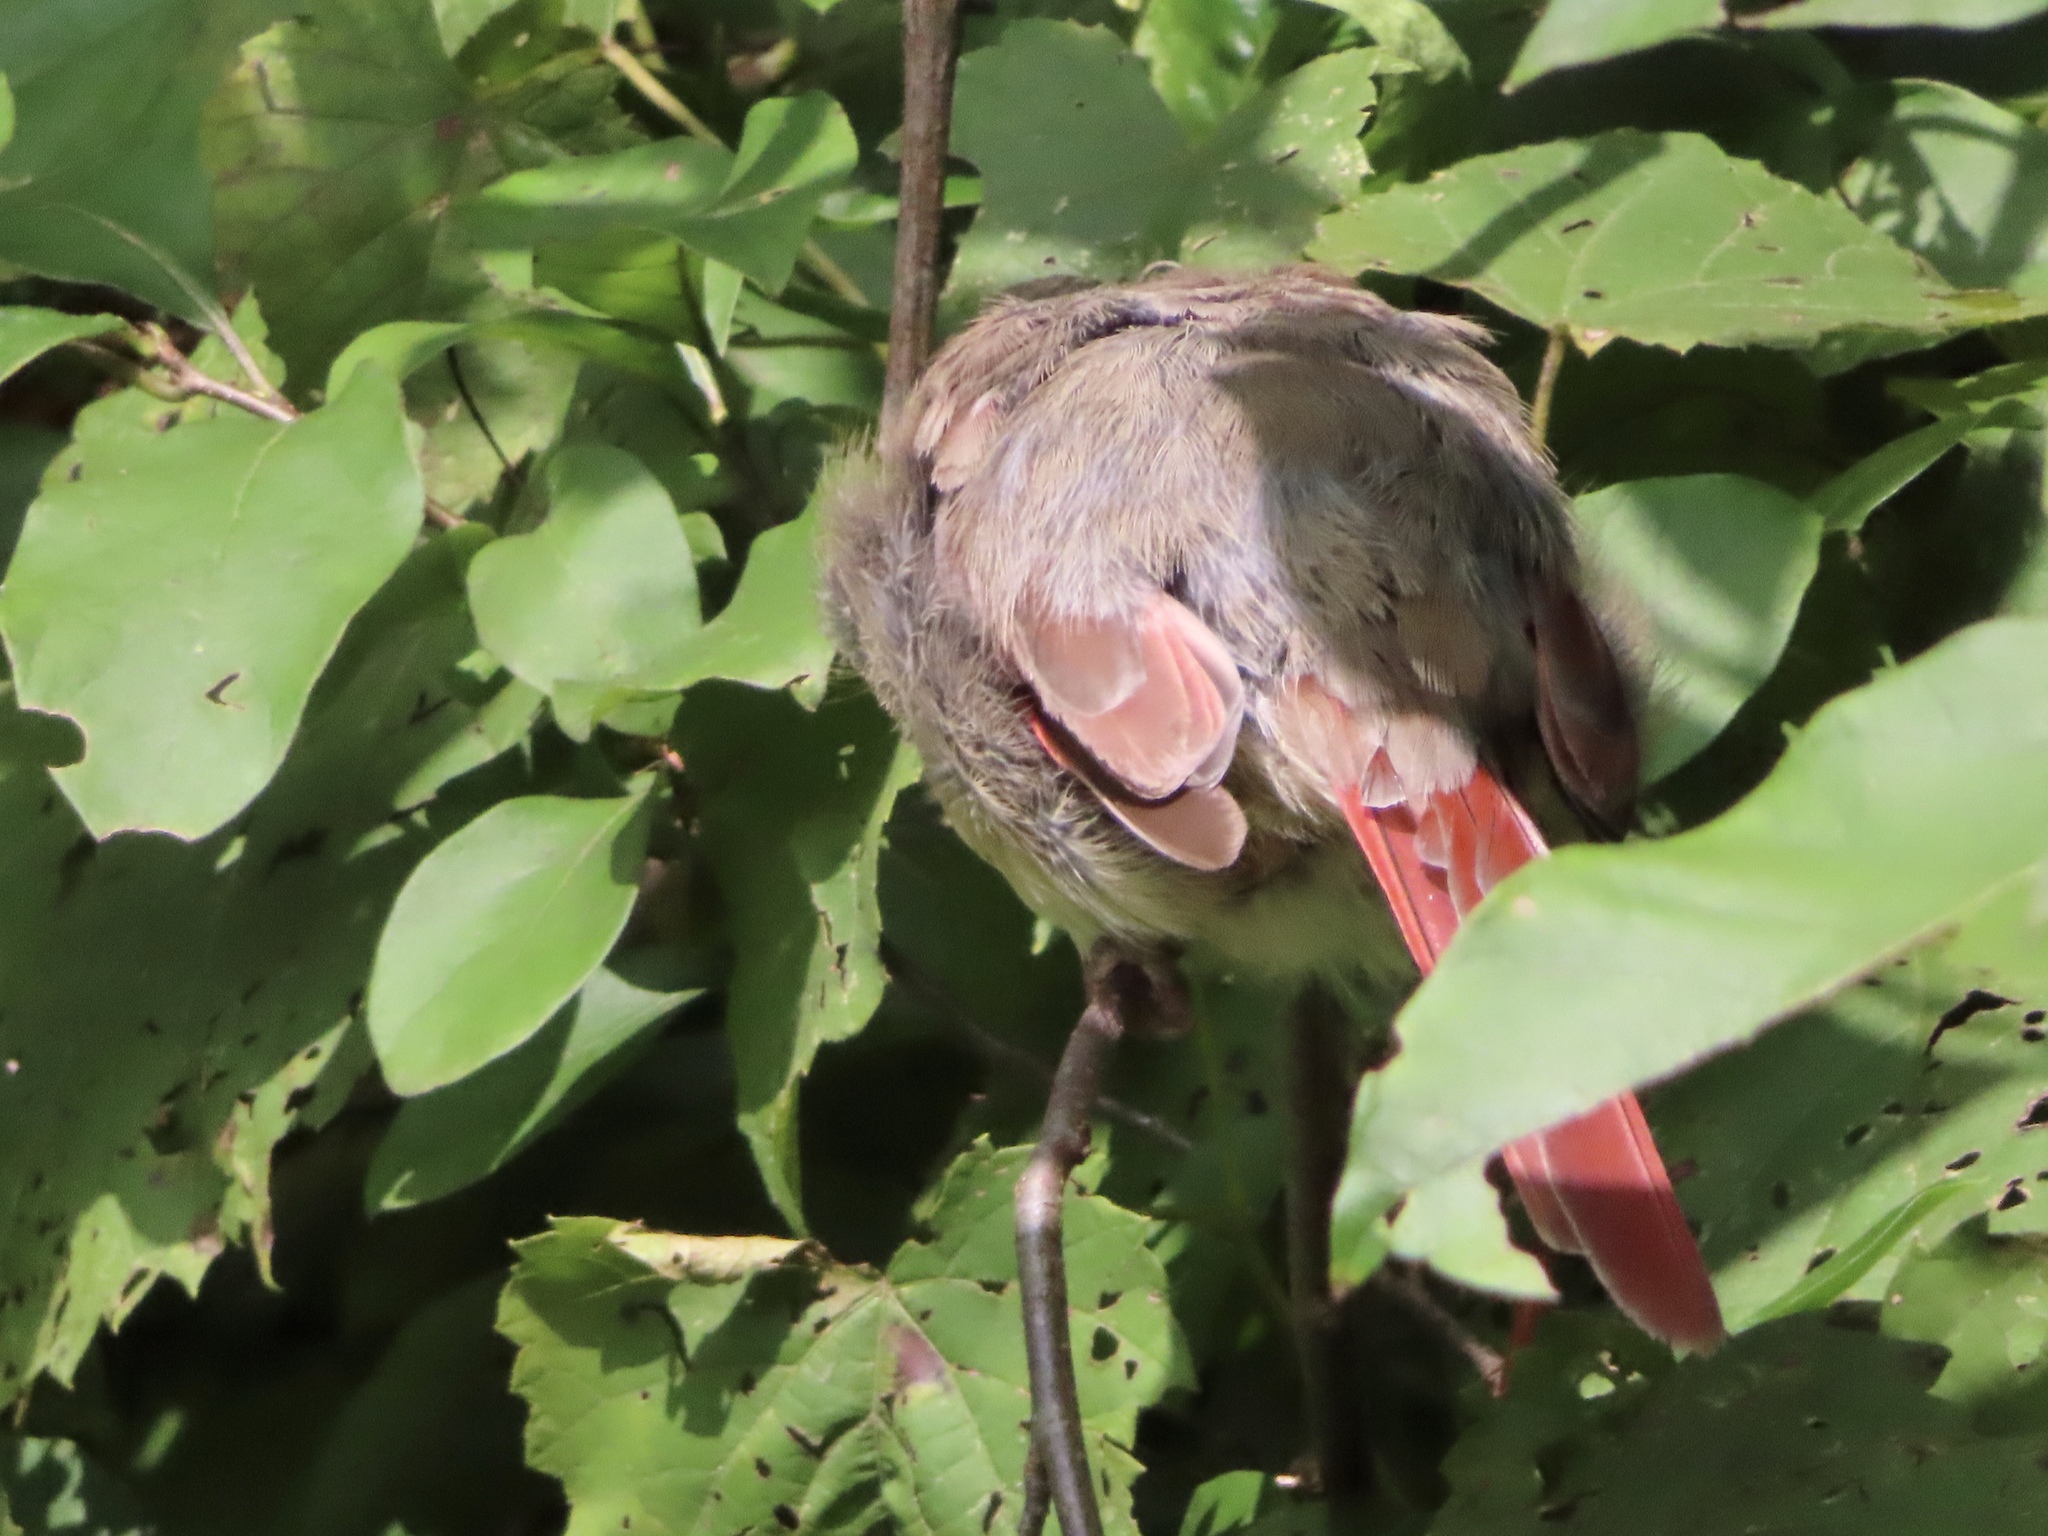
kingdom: Animalia
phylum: Chordata
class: Aves
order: Passeriformes
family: Cardinalidae
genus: Cardinalis
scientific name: Cardinalis cardinalis
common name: Northern cardinal
